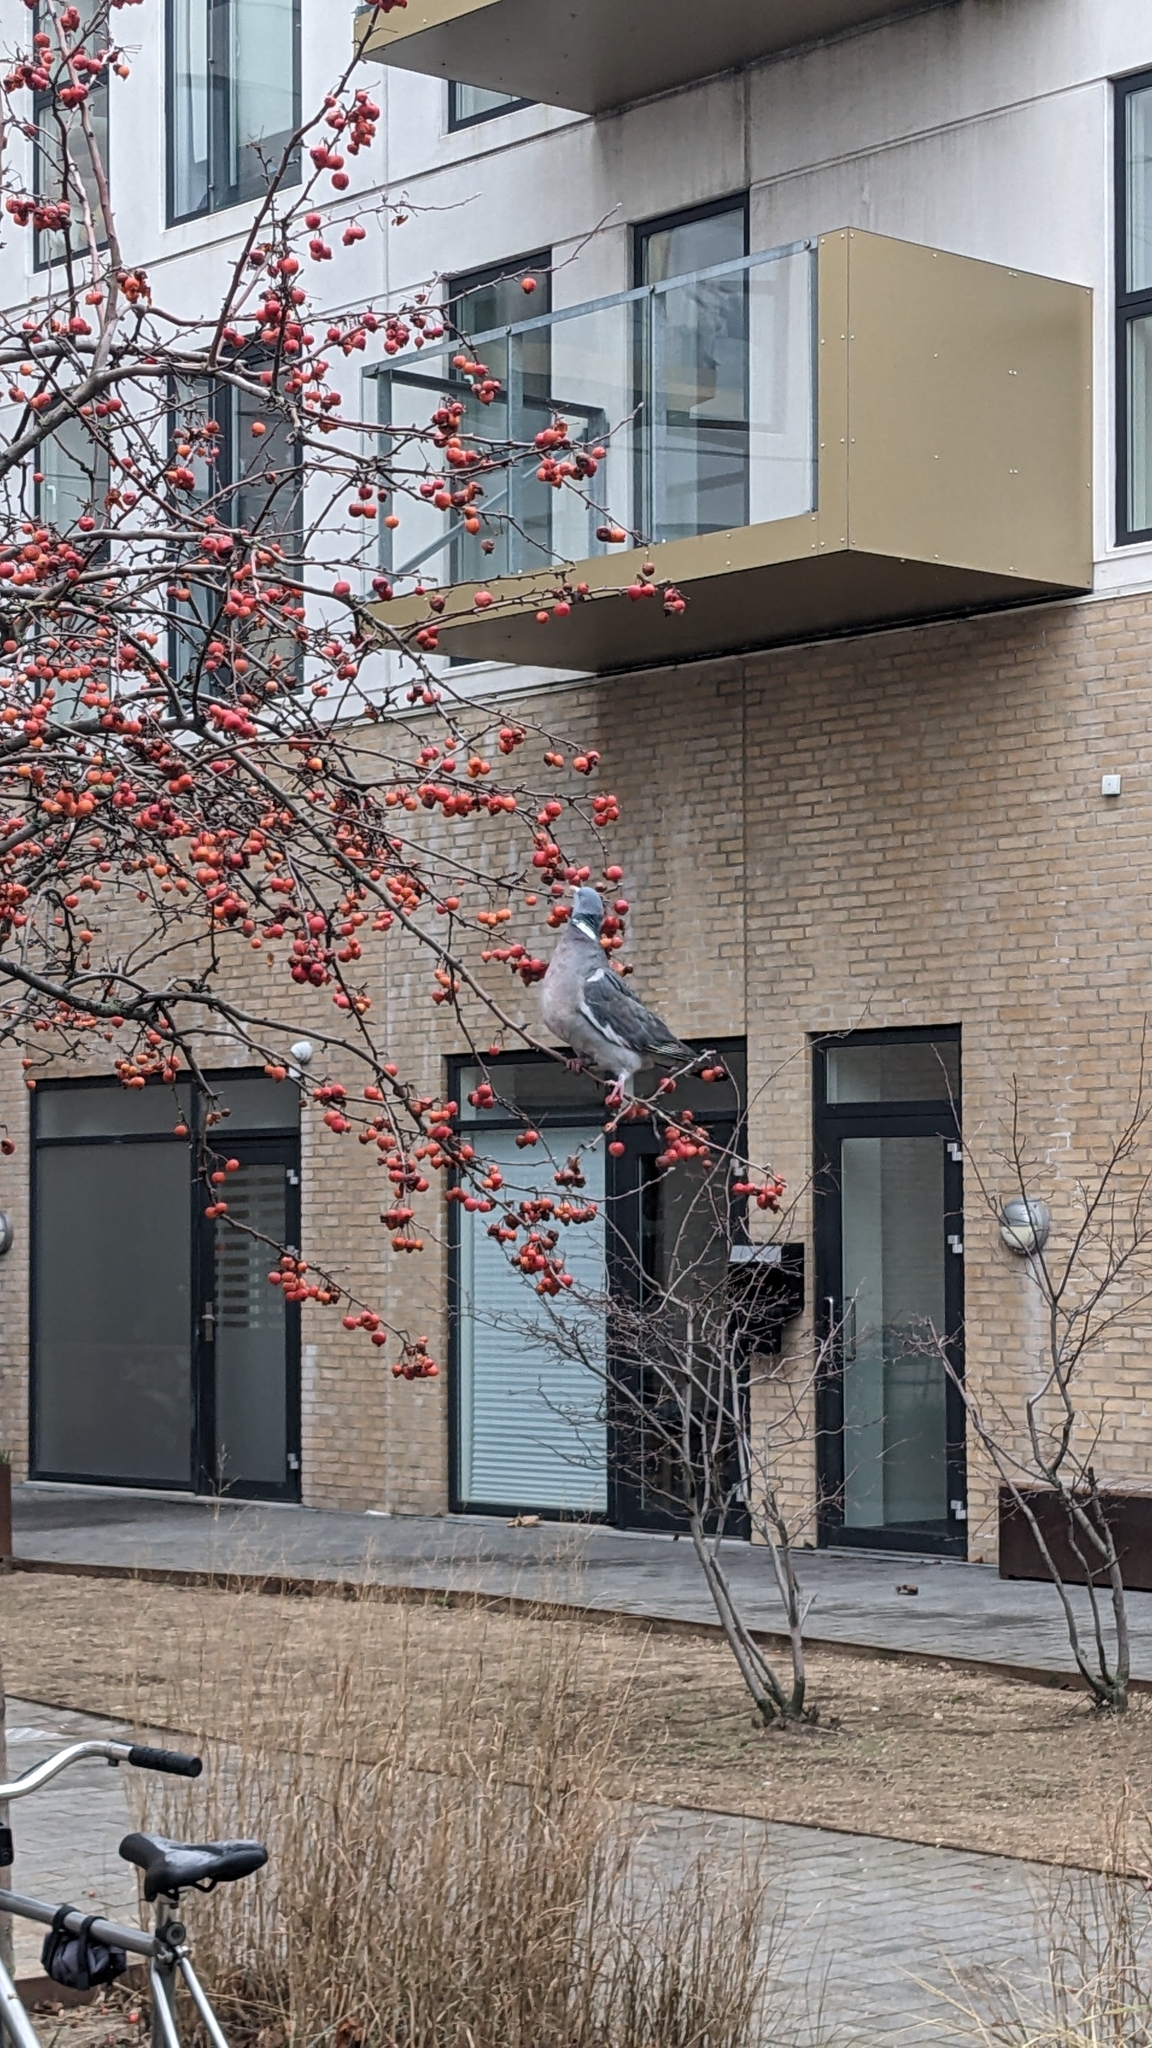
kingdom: Animalia
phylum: Chordata
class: Aves
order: Columbiformes
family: Columbidae
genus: Columba
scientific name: Columba palumbus
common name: Common wood pigeon
